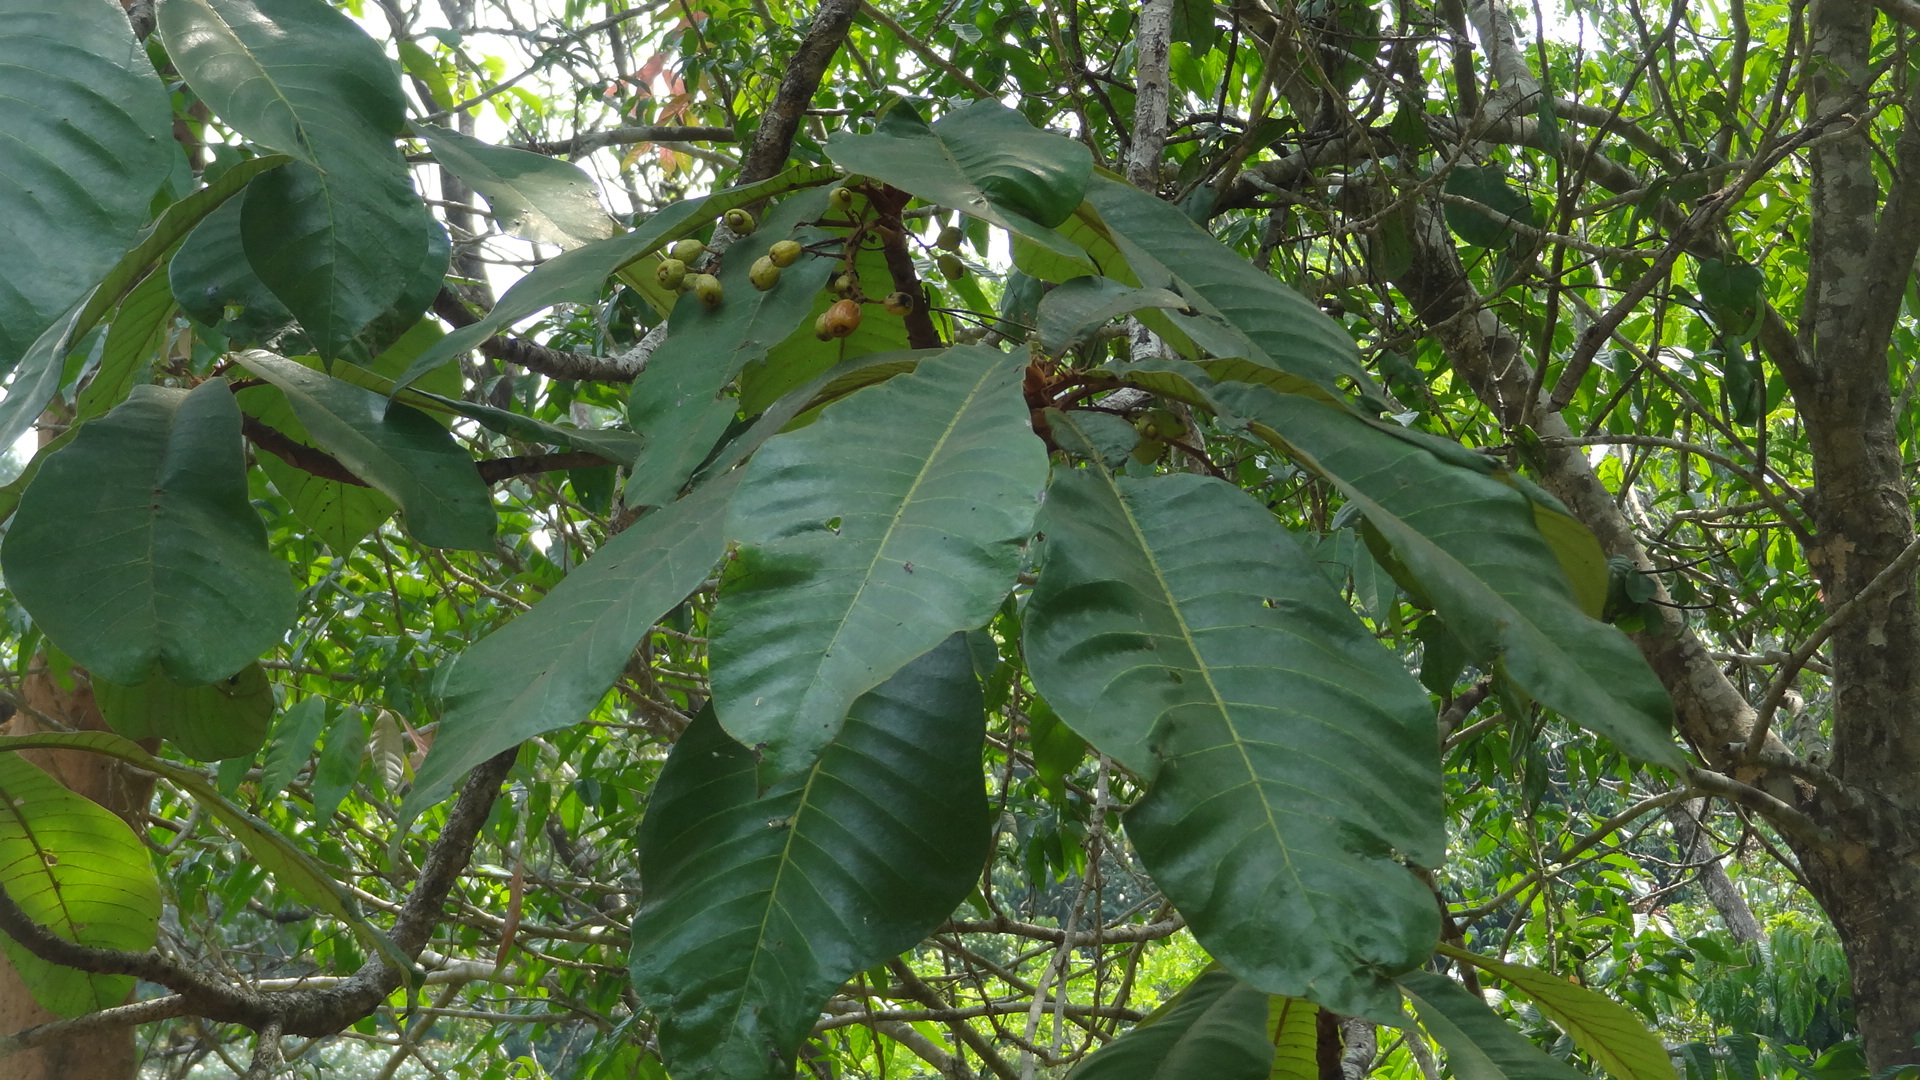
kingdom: Plantae
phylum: Tracheophyta
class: Magnoliopsida
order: Sapindales
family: Anacardiaceae
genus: Holigarna
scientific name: Holigarna grahamii
